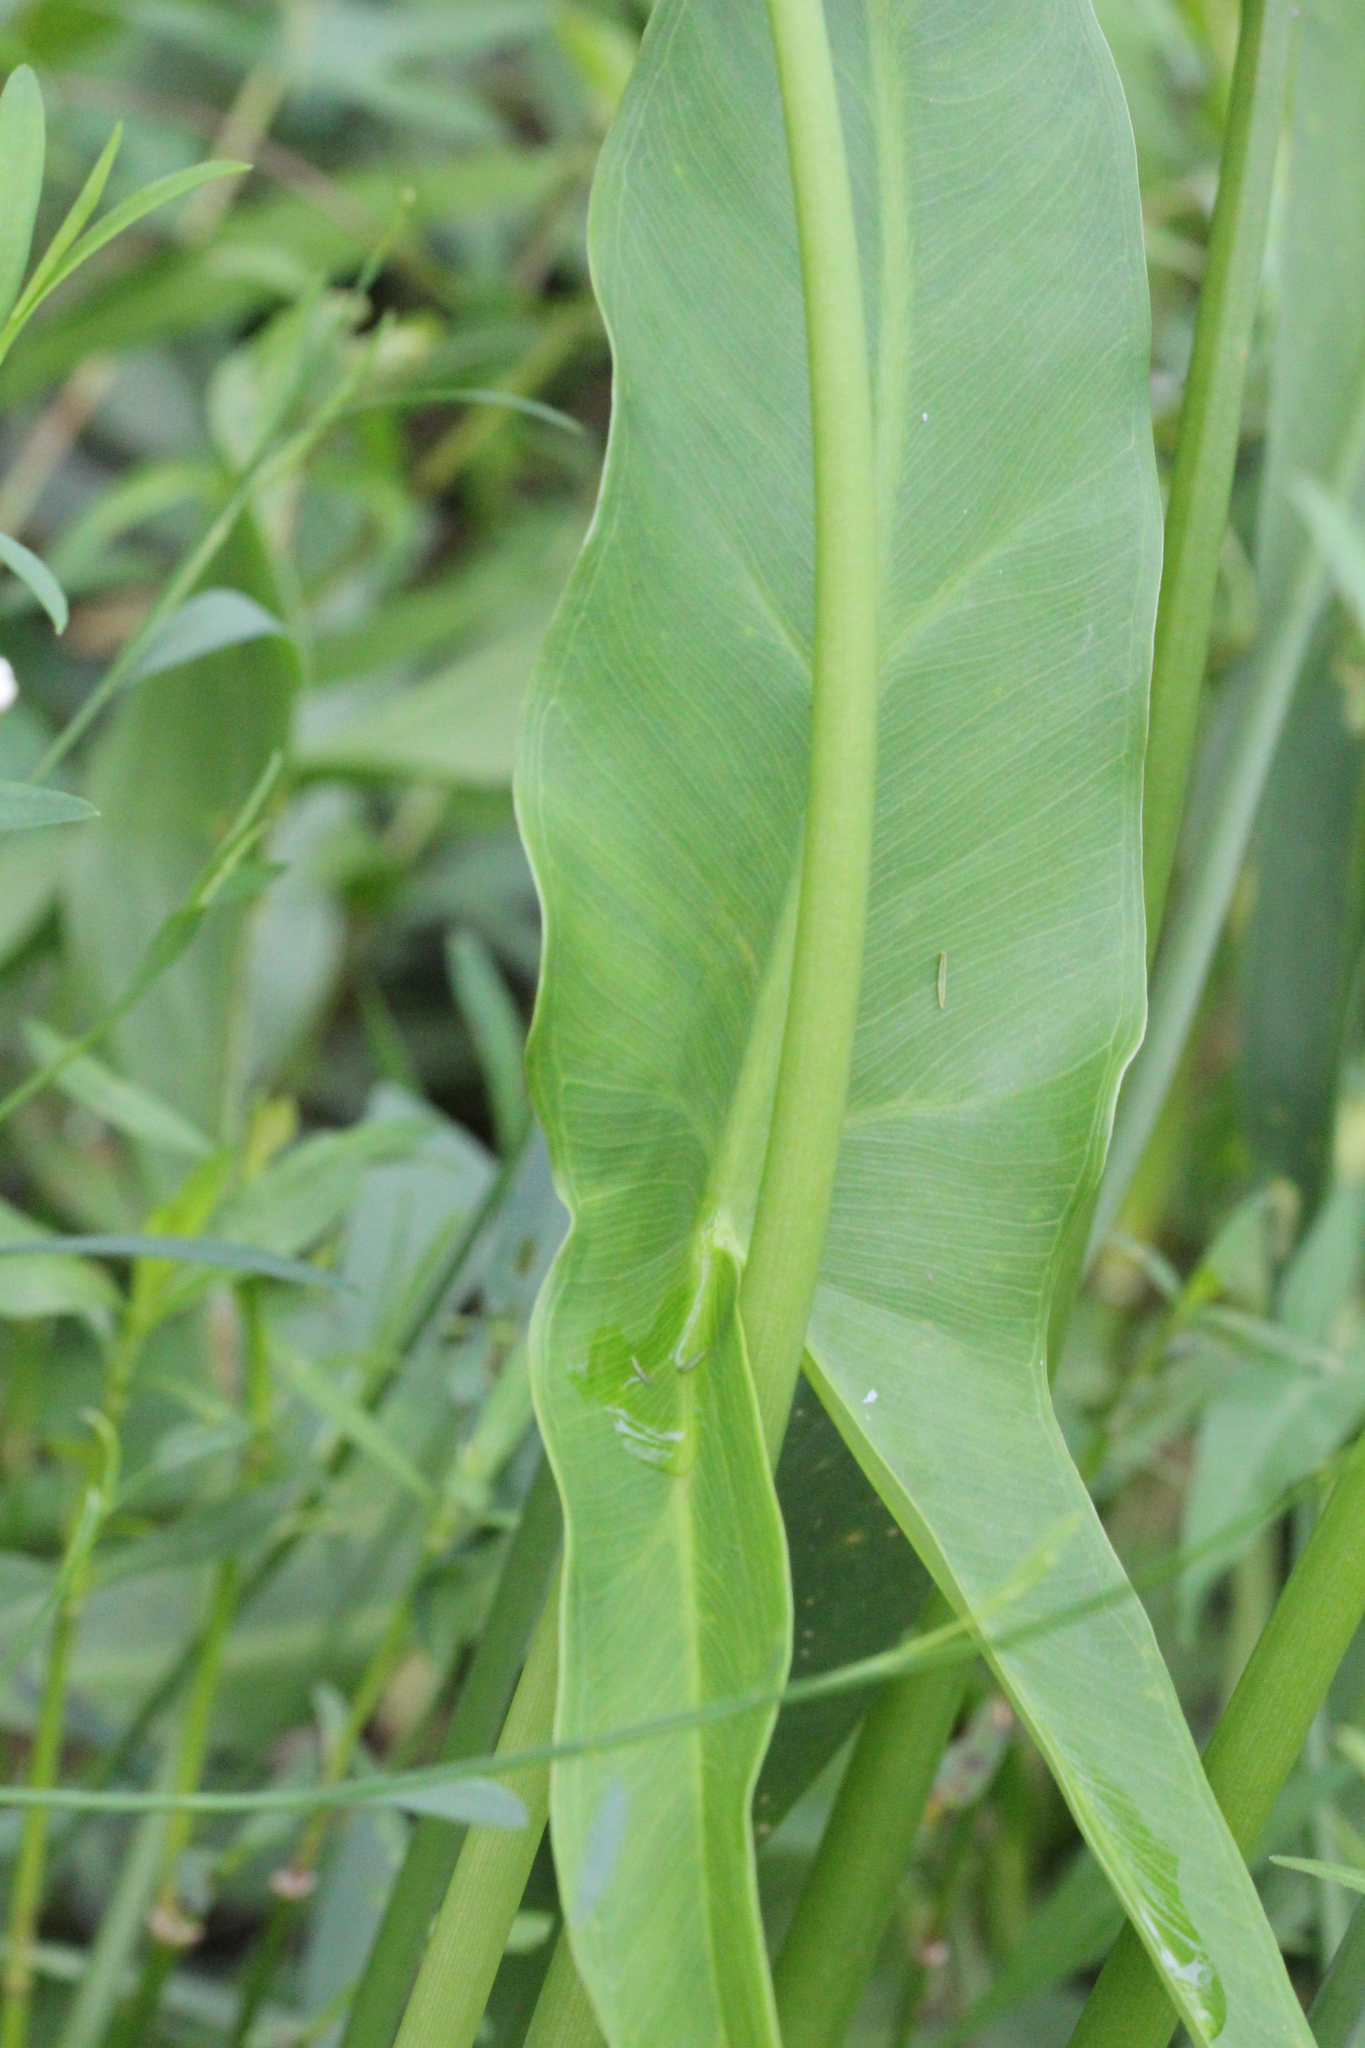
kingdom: Plantae
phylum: Tracheophyta
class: Liliopsida
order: Alismatales
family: Araceae
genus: Peltandra
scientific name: Peltandra virginica
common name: Arrow arum
